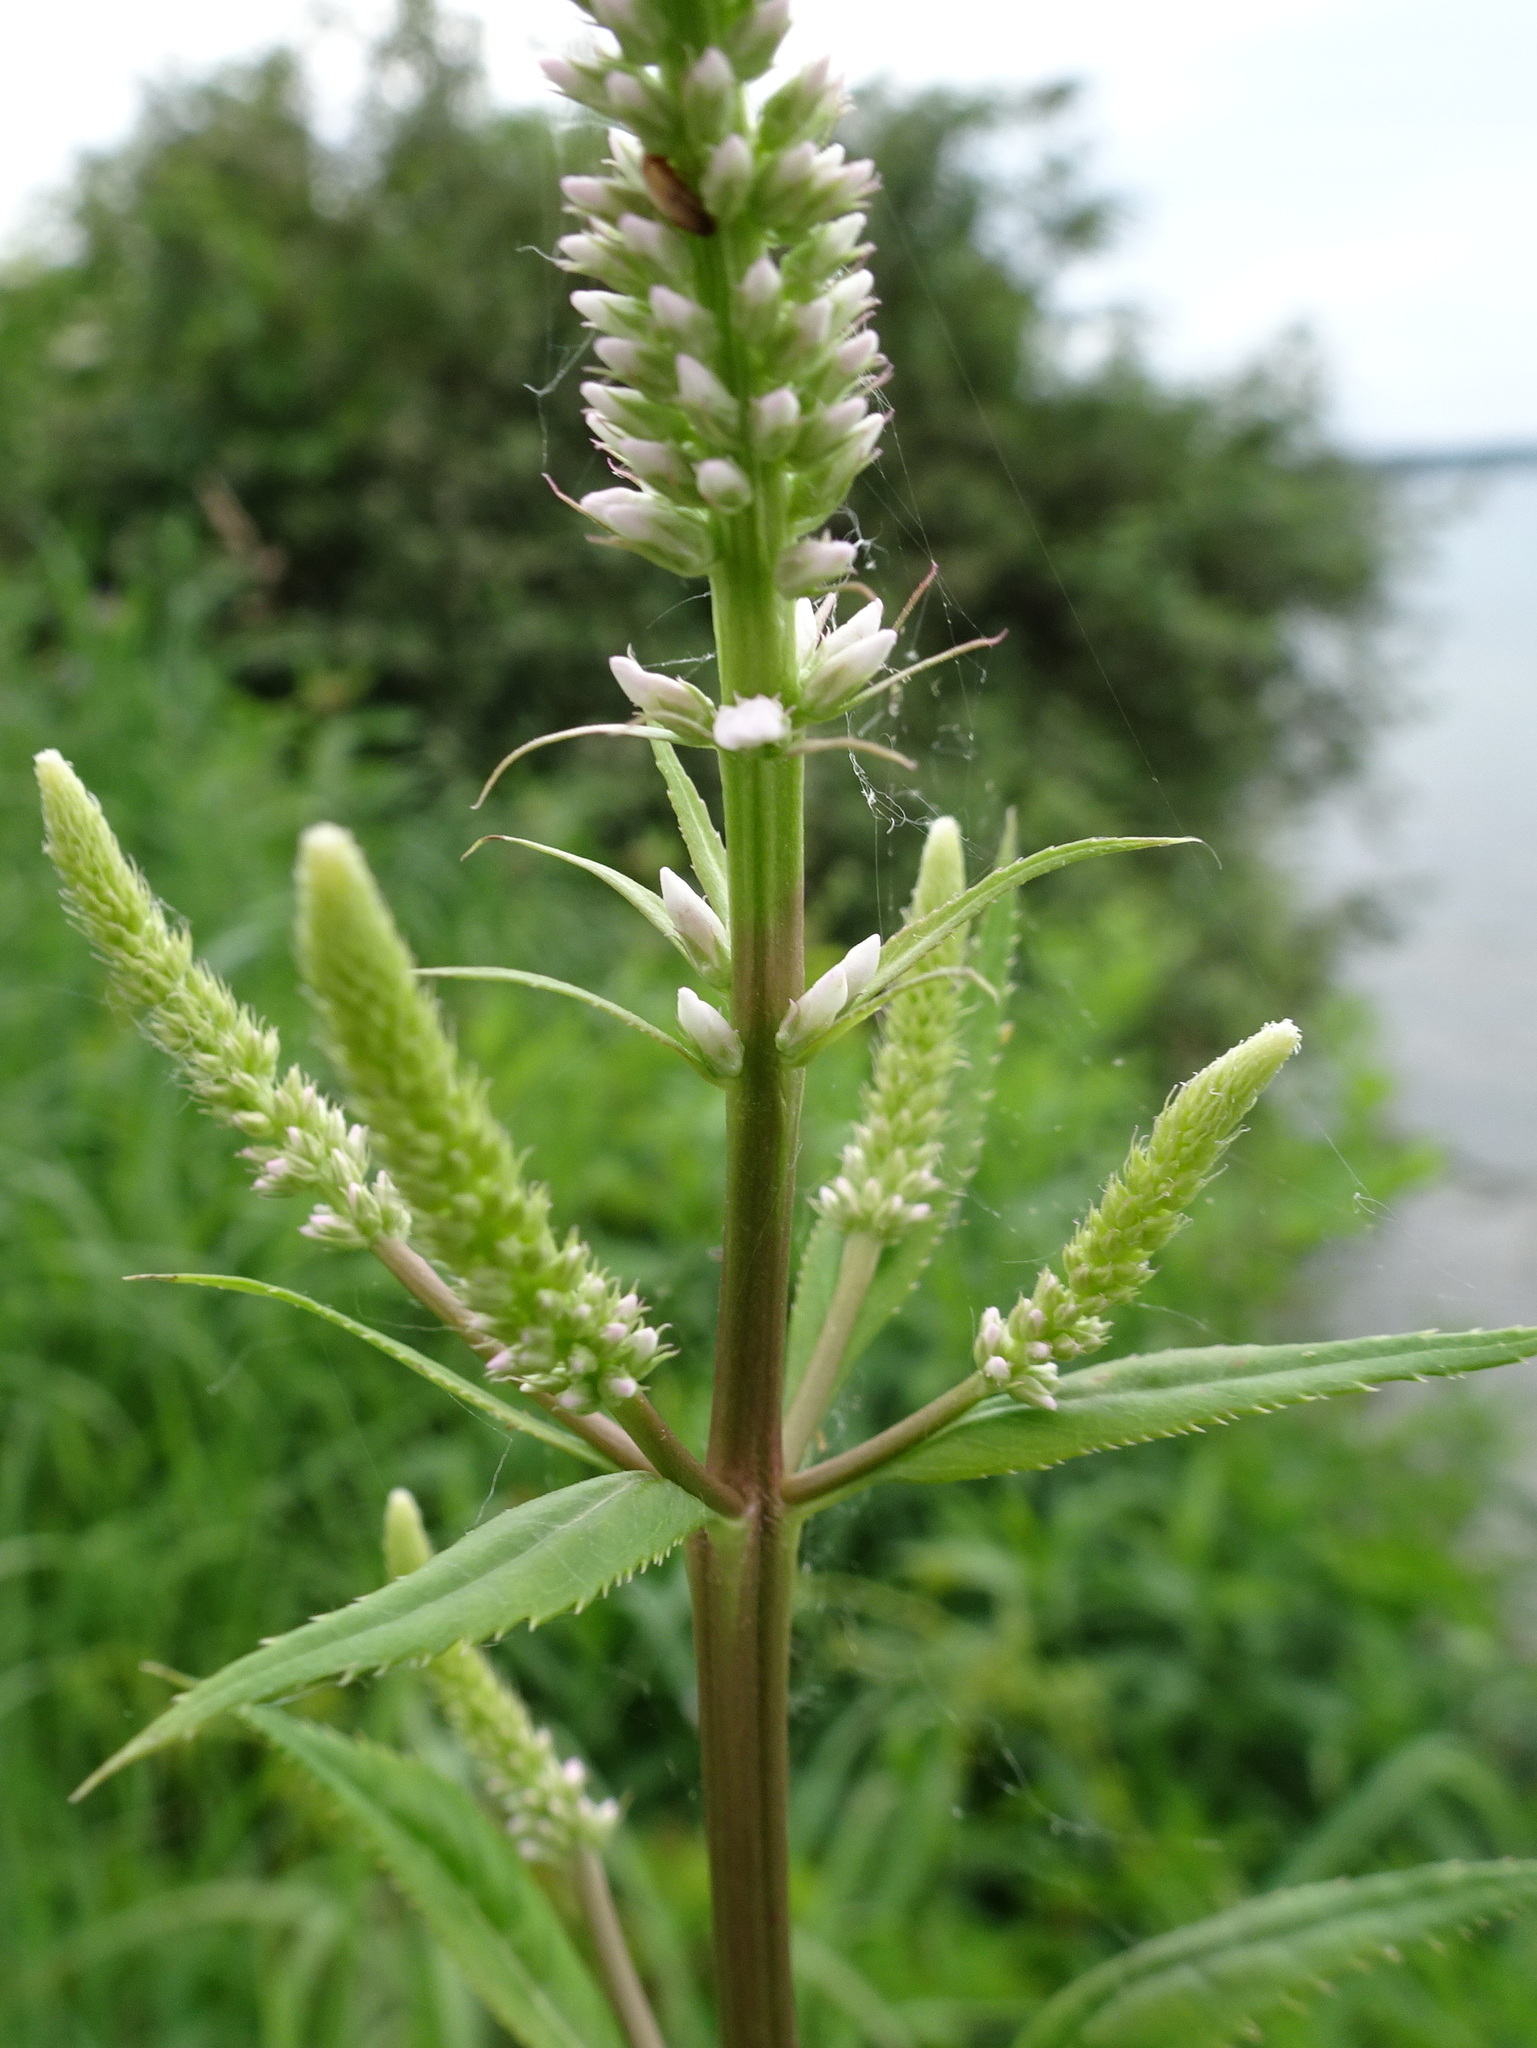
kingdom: Plantae
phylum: Tracheophyta
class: Magnoliopsida
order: Lamiales
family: Plantaginaceae
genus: Veronicastrum
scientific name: Veronicastrum virginicum
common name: Blackroot
